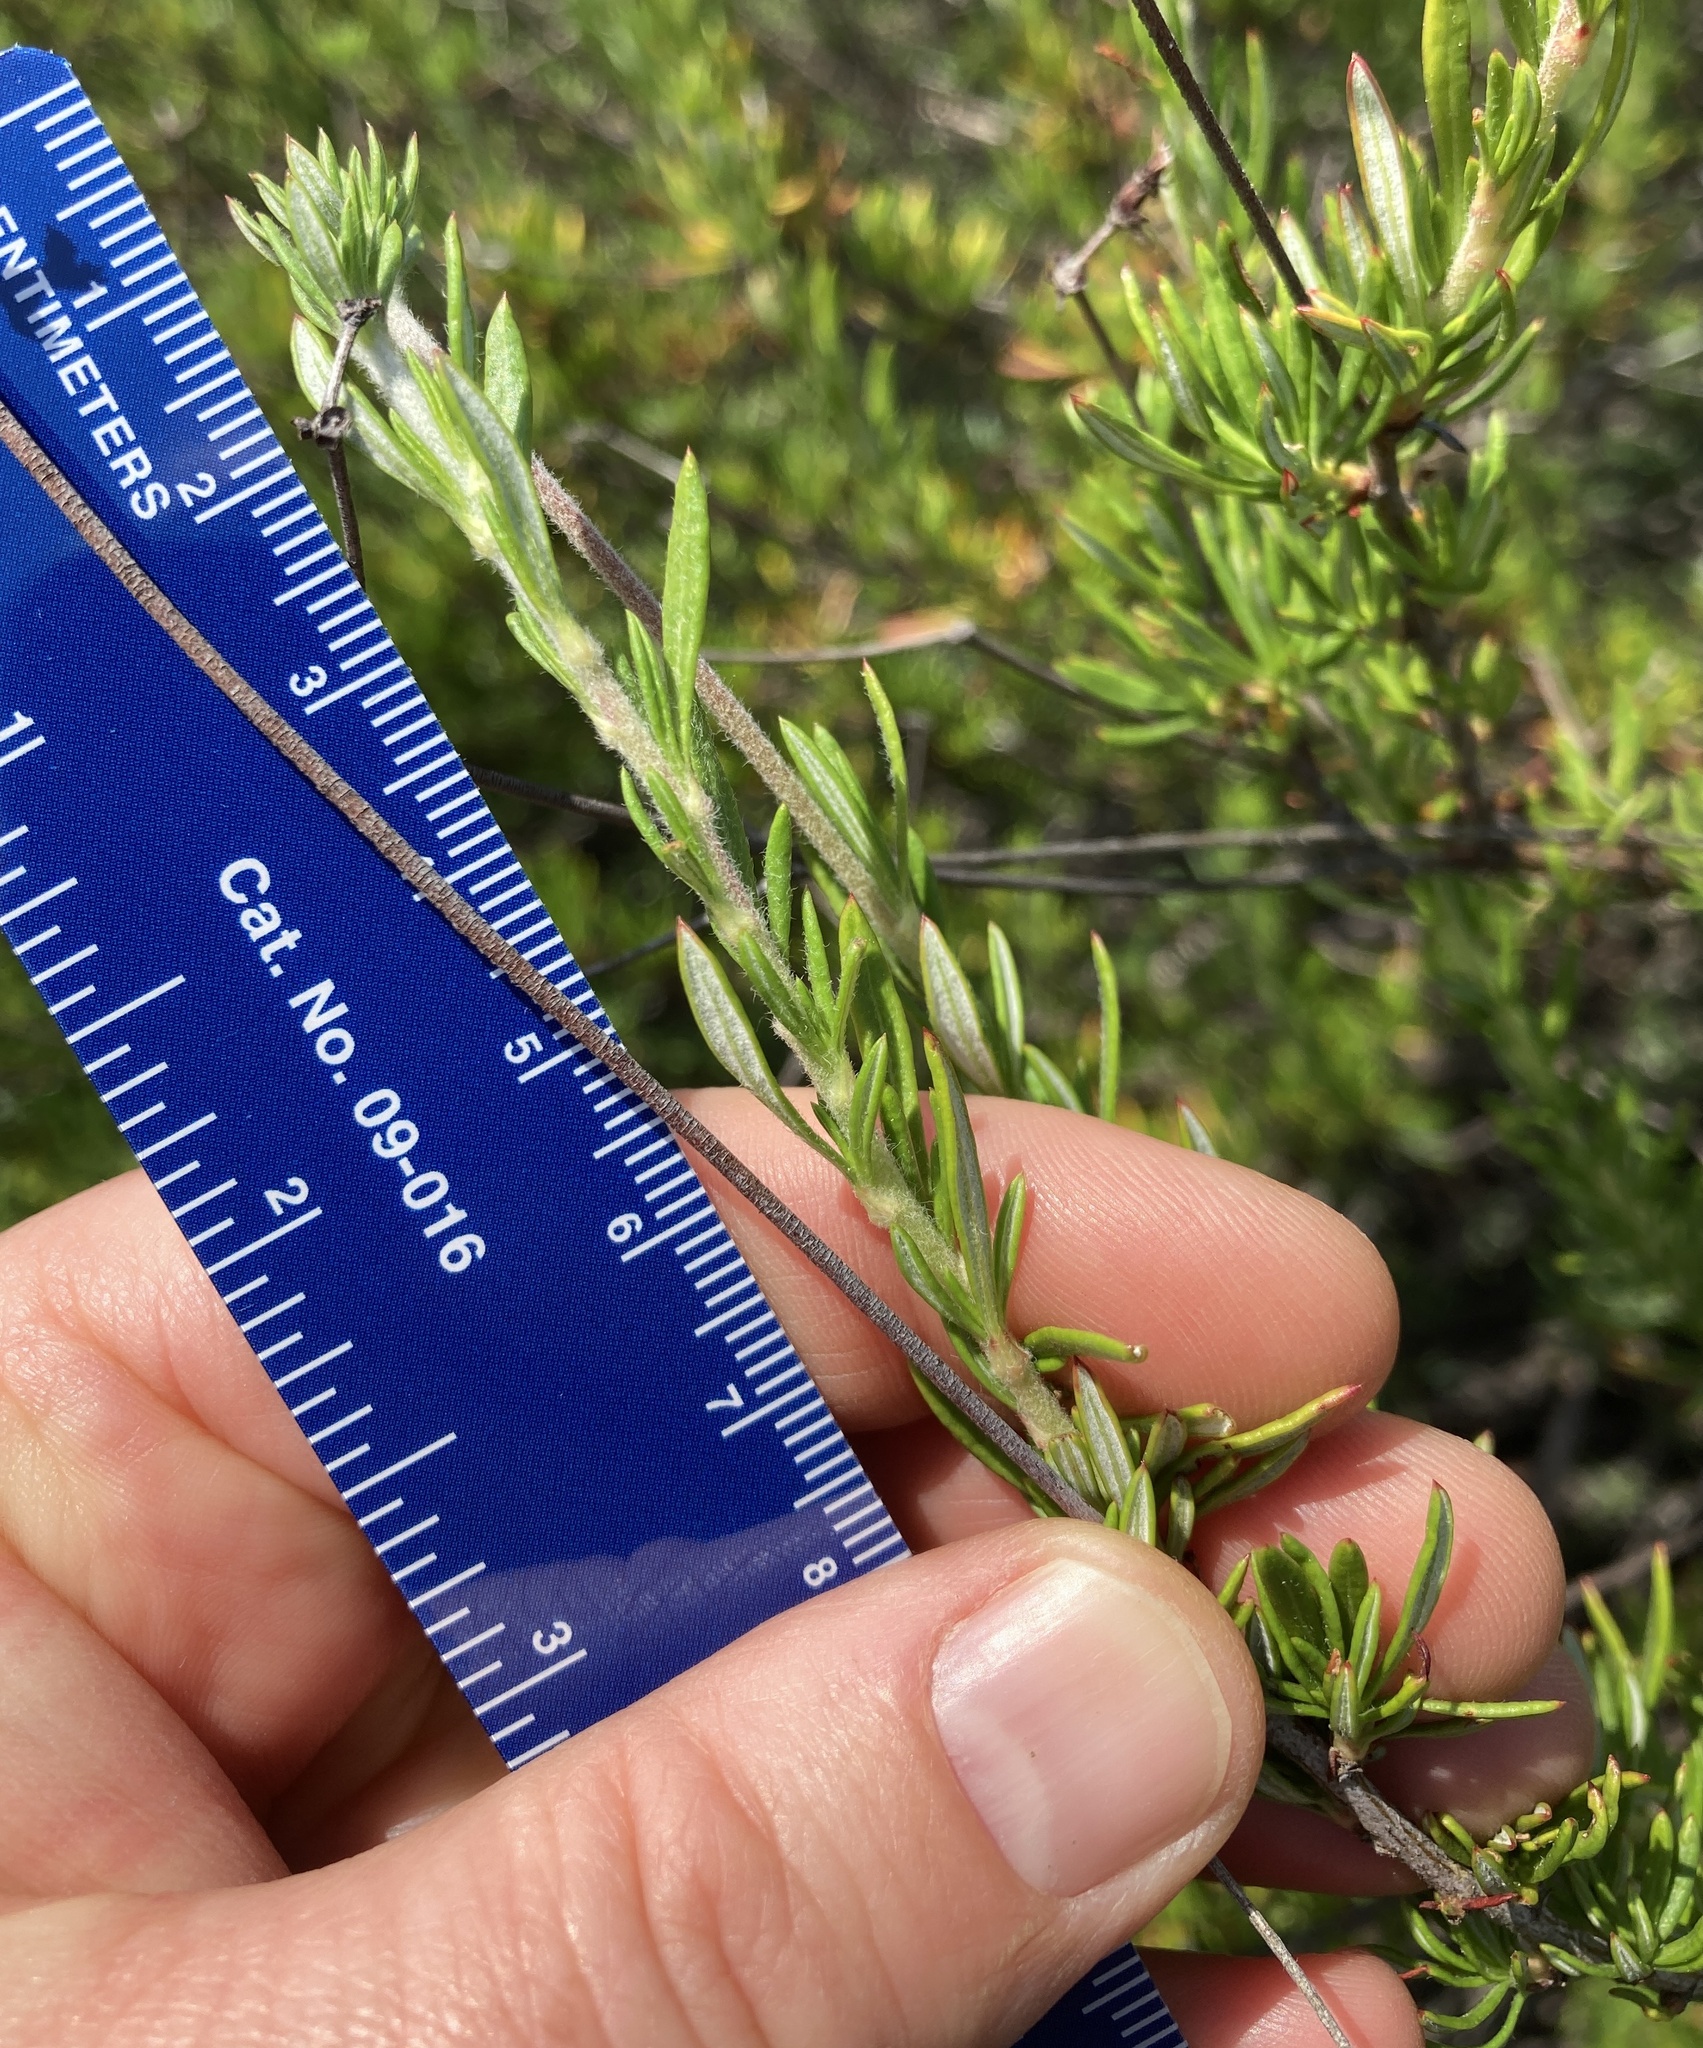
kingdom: Plantae
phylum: Tracheophyta
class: Magnoliopsida
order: Caryophyllales
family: Polygonaceae
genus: Eriogonum
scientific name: Eriogonum fasciculatum
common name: California wild buckwheat
